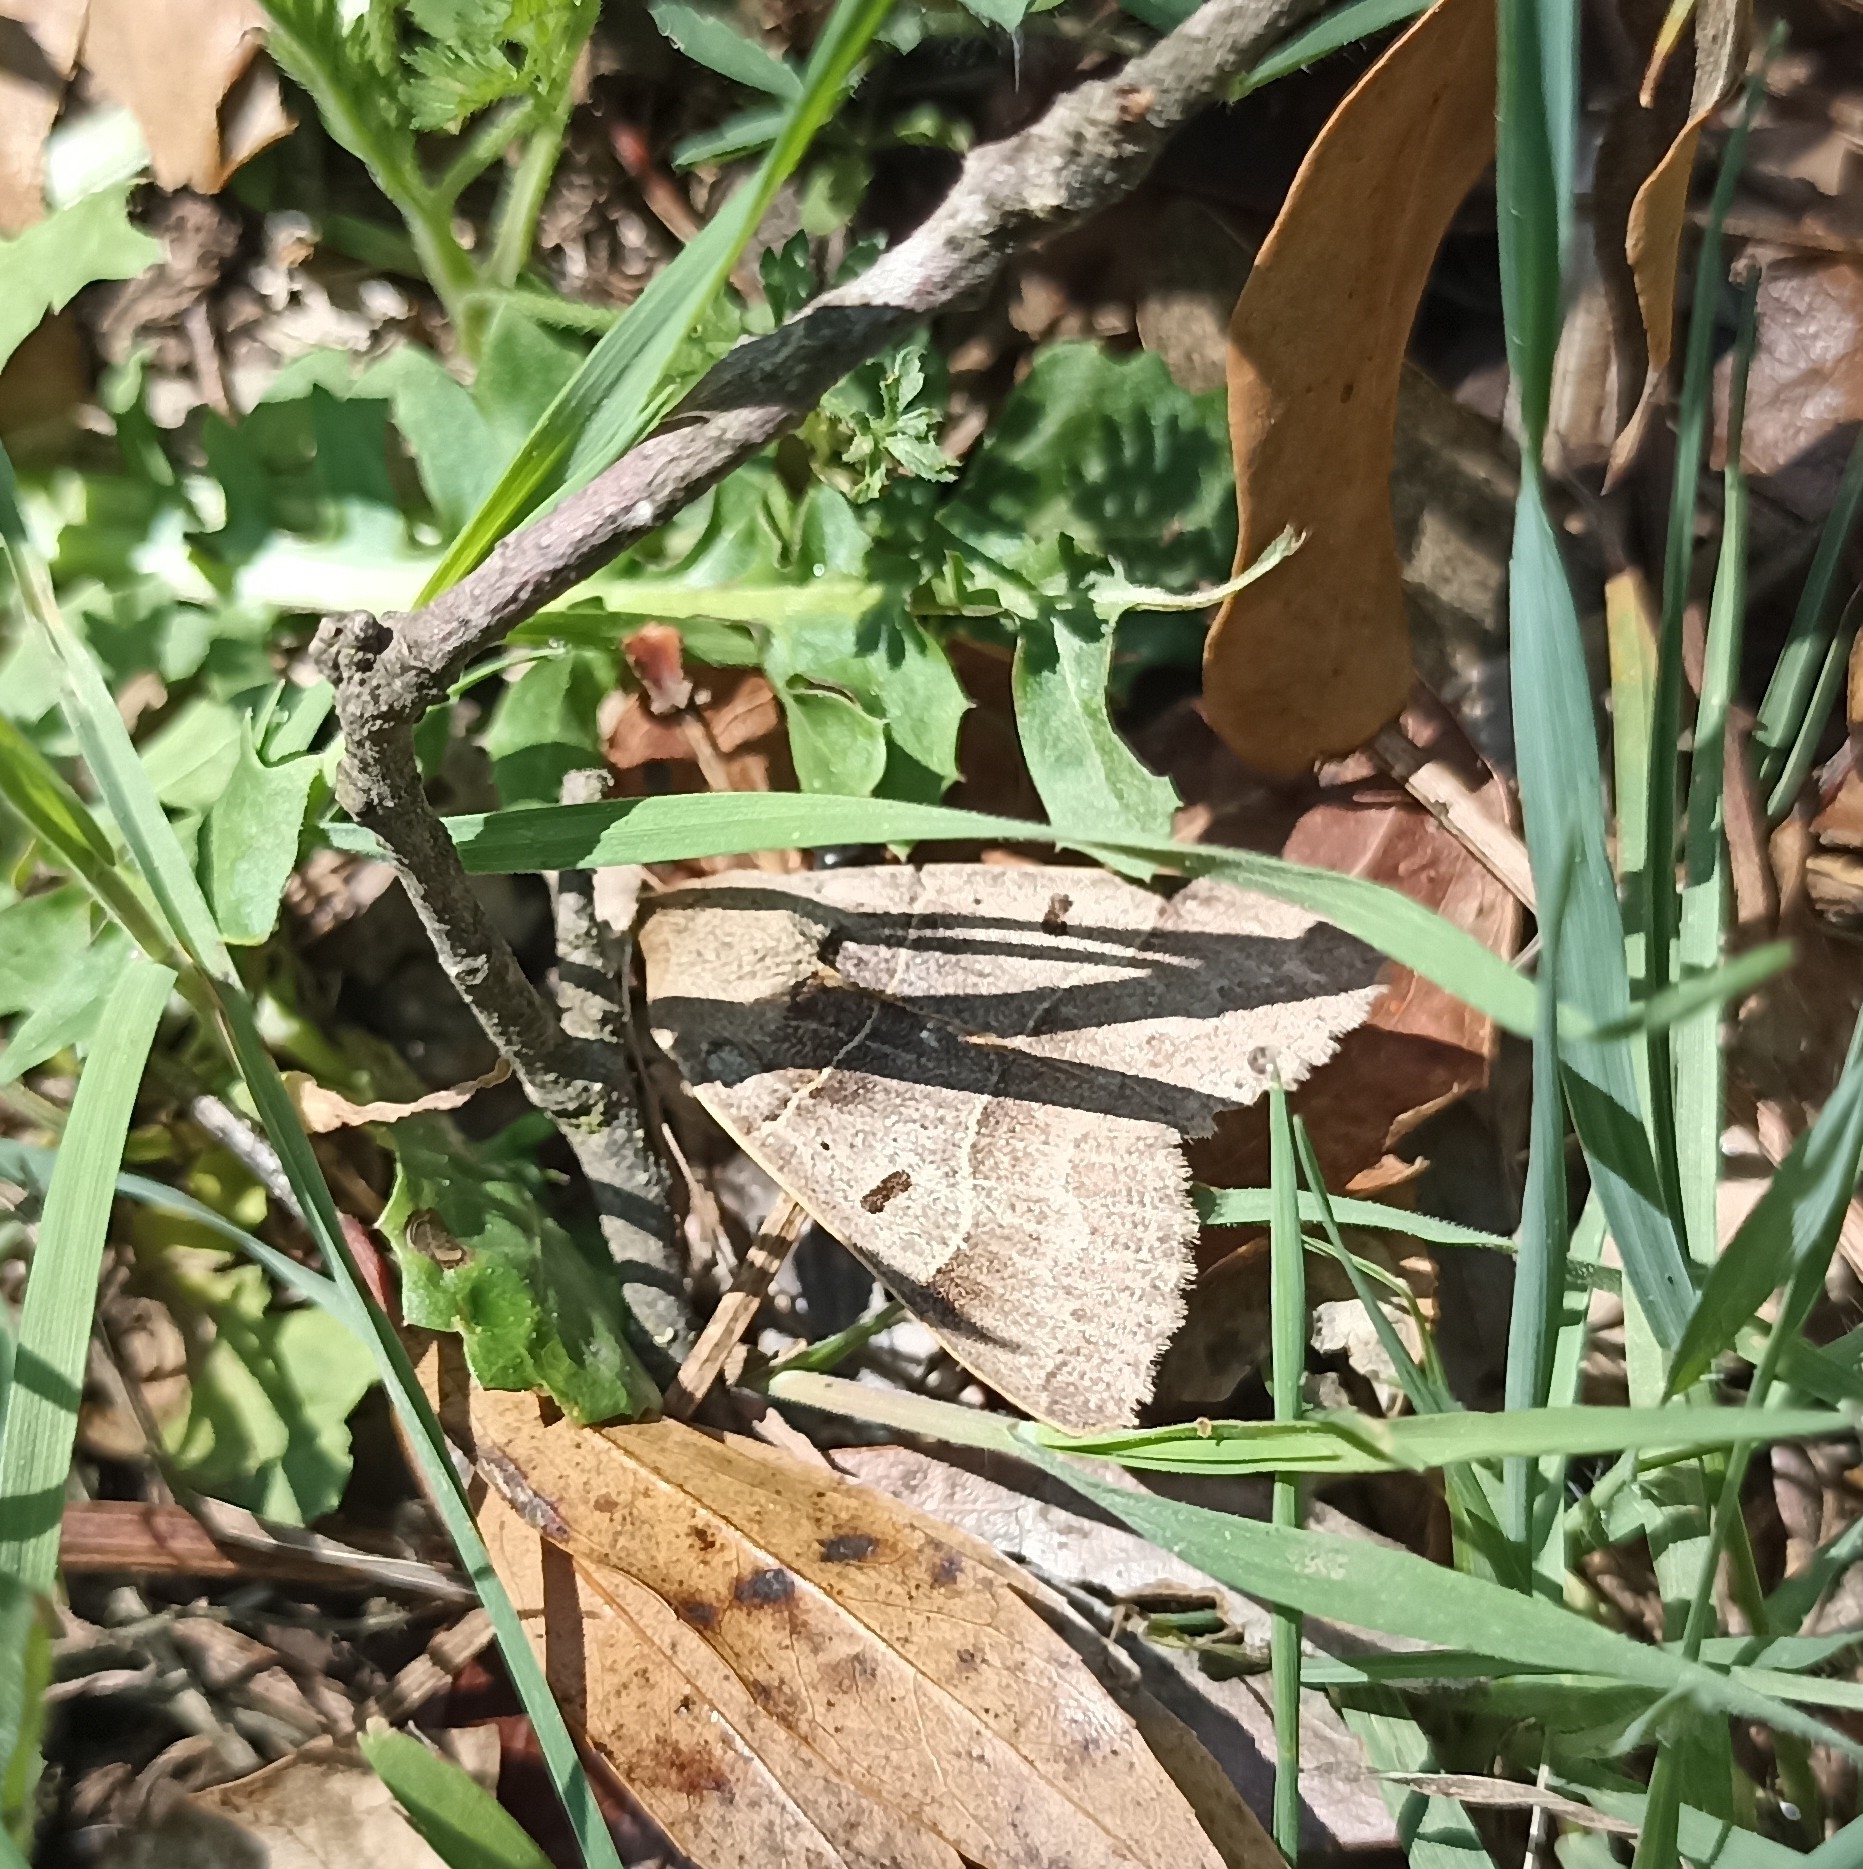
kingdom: Animalia
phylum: Arthropoda
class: Insecta
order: Lepidoptera
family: Erebidae
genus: Minucia
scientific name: Minucia lunaris
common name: Lunar double-stripe
